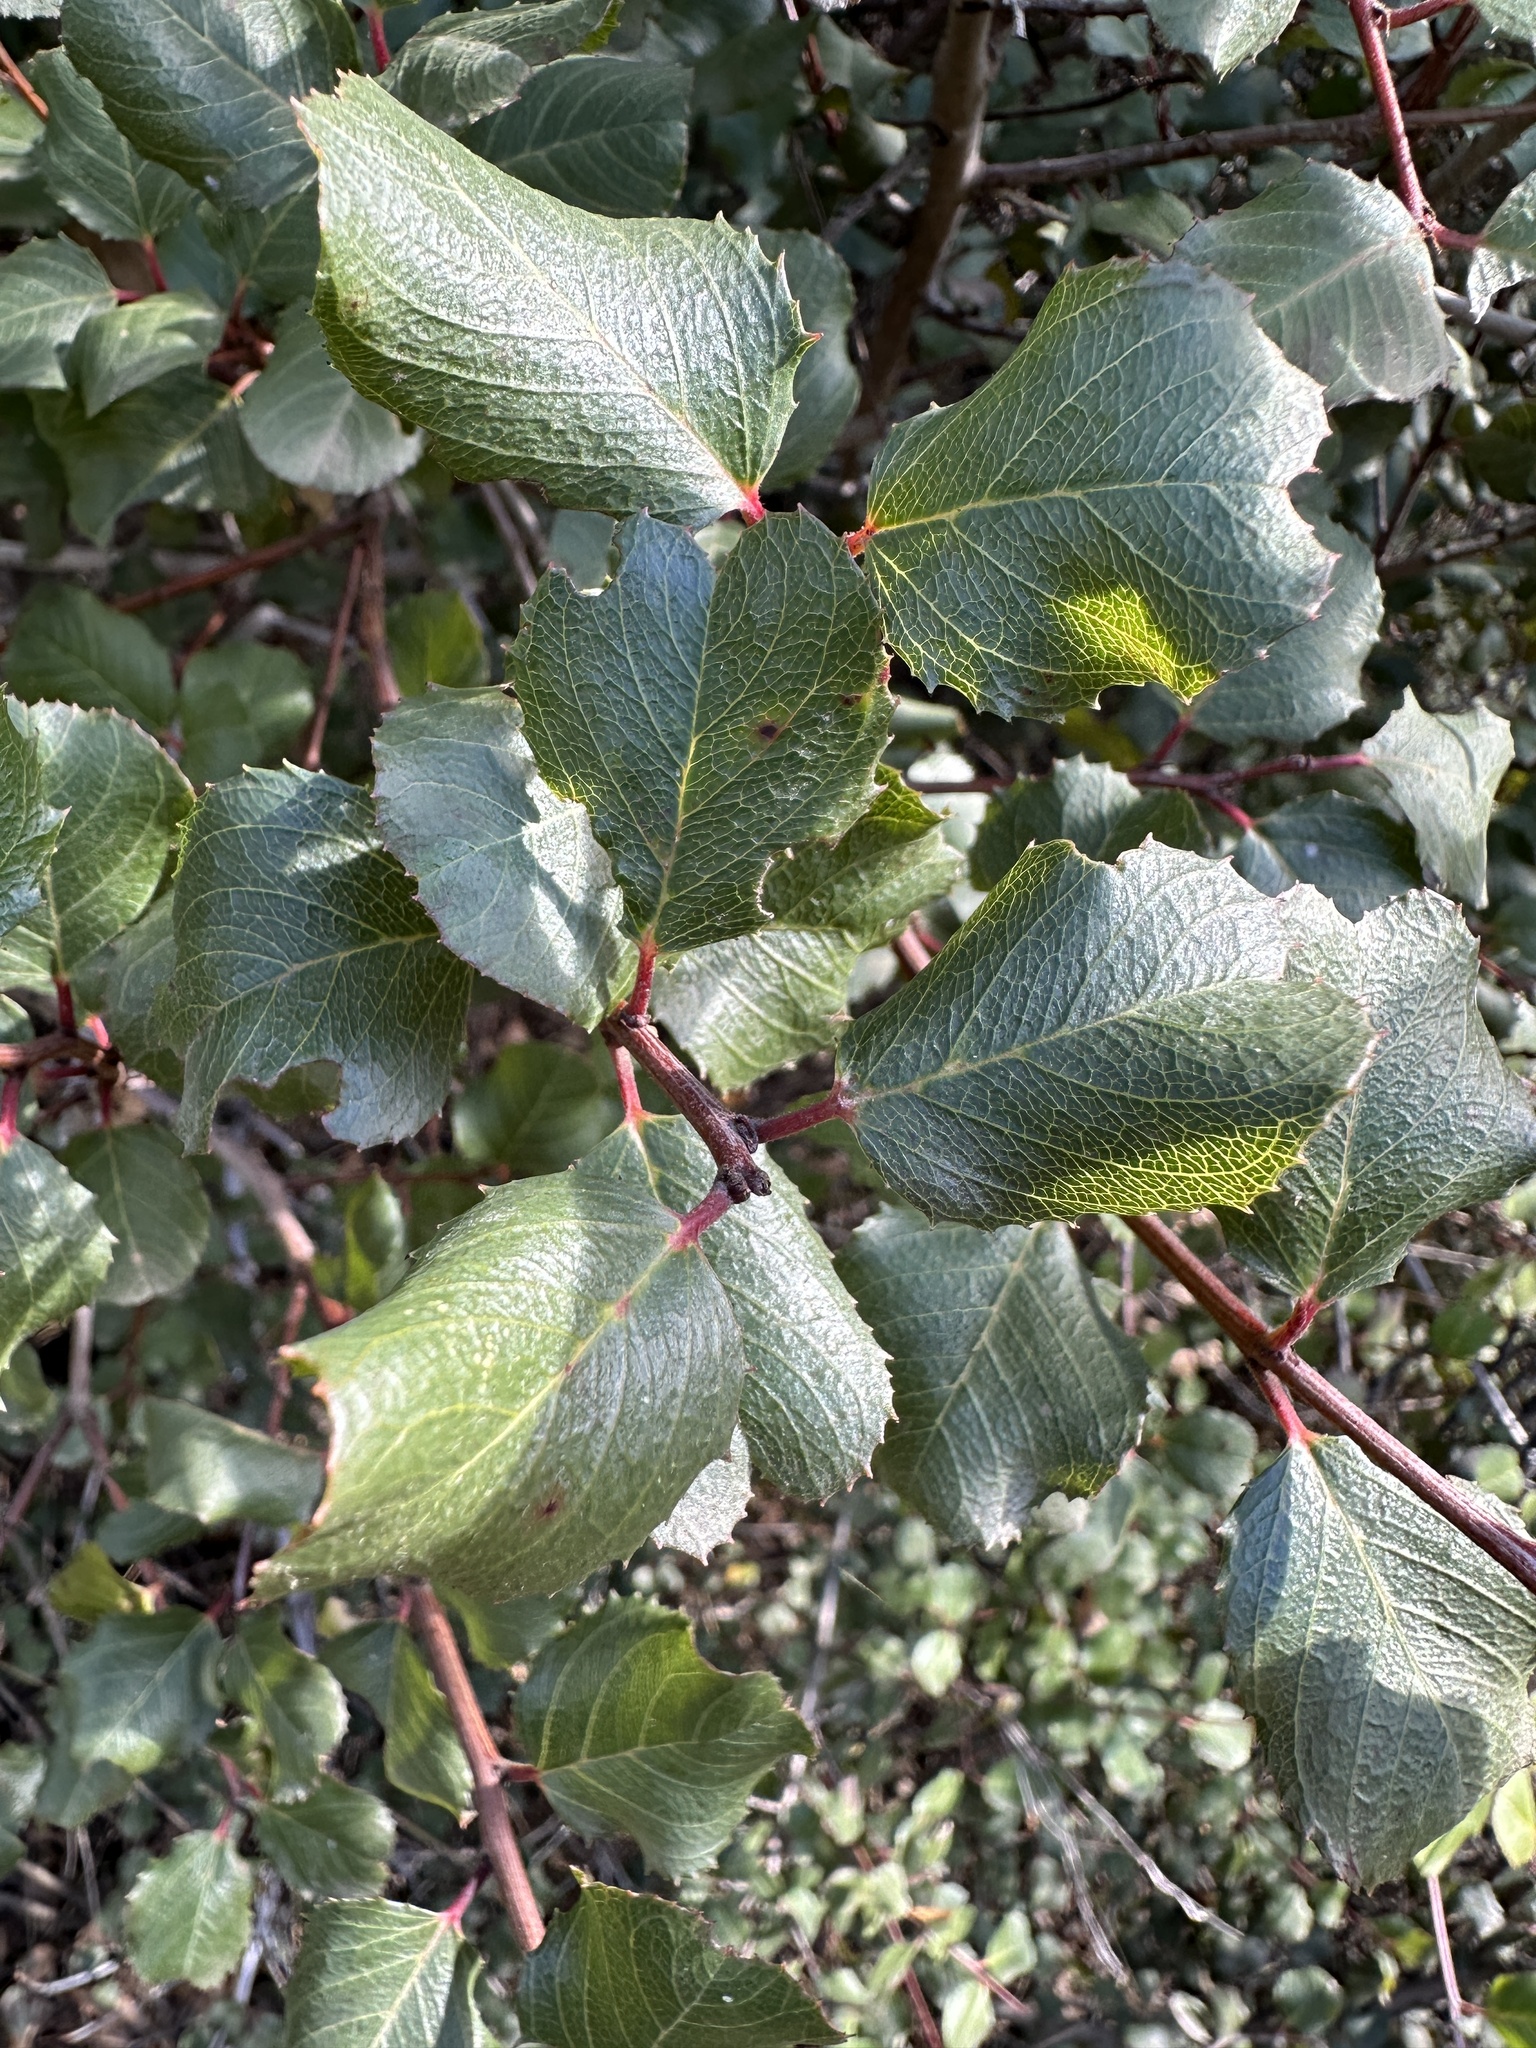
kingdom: Plantae
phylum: Tracheophyta
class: Magnoliopsida
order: Rosales
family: Rhamnaceae
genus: Endotropis
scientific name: Endotropis crocea
